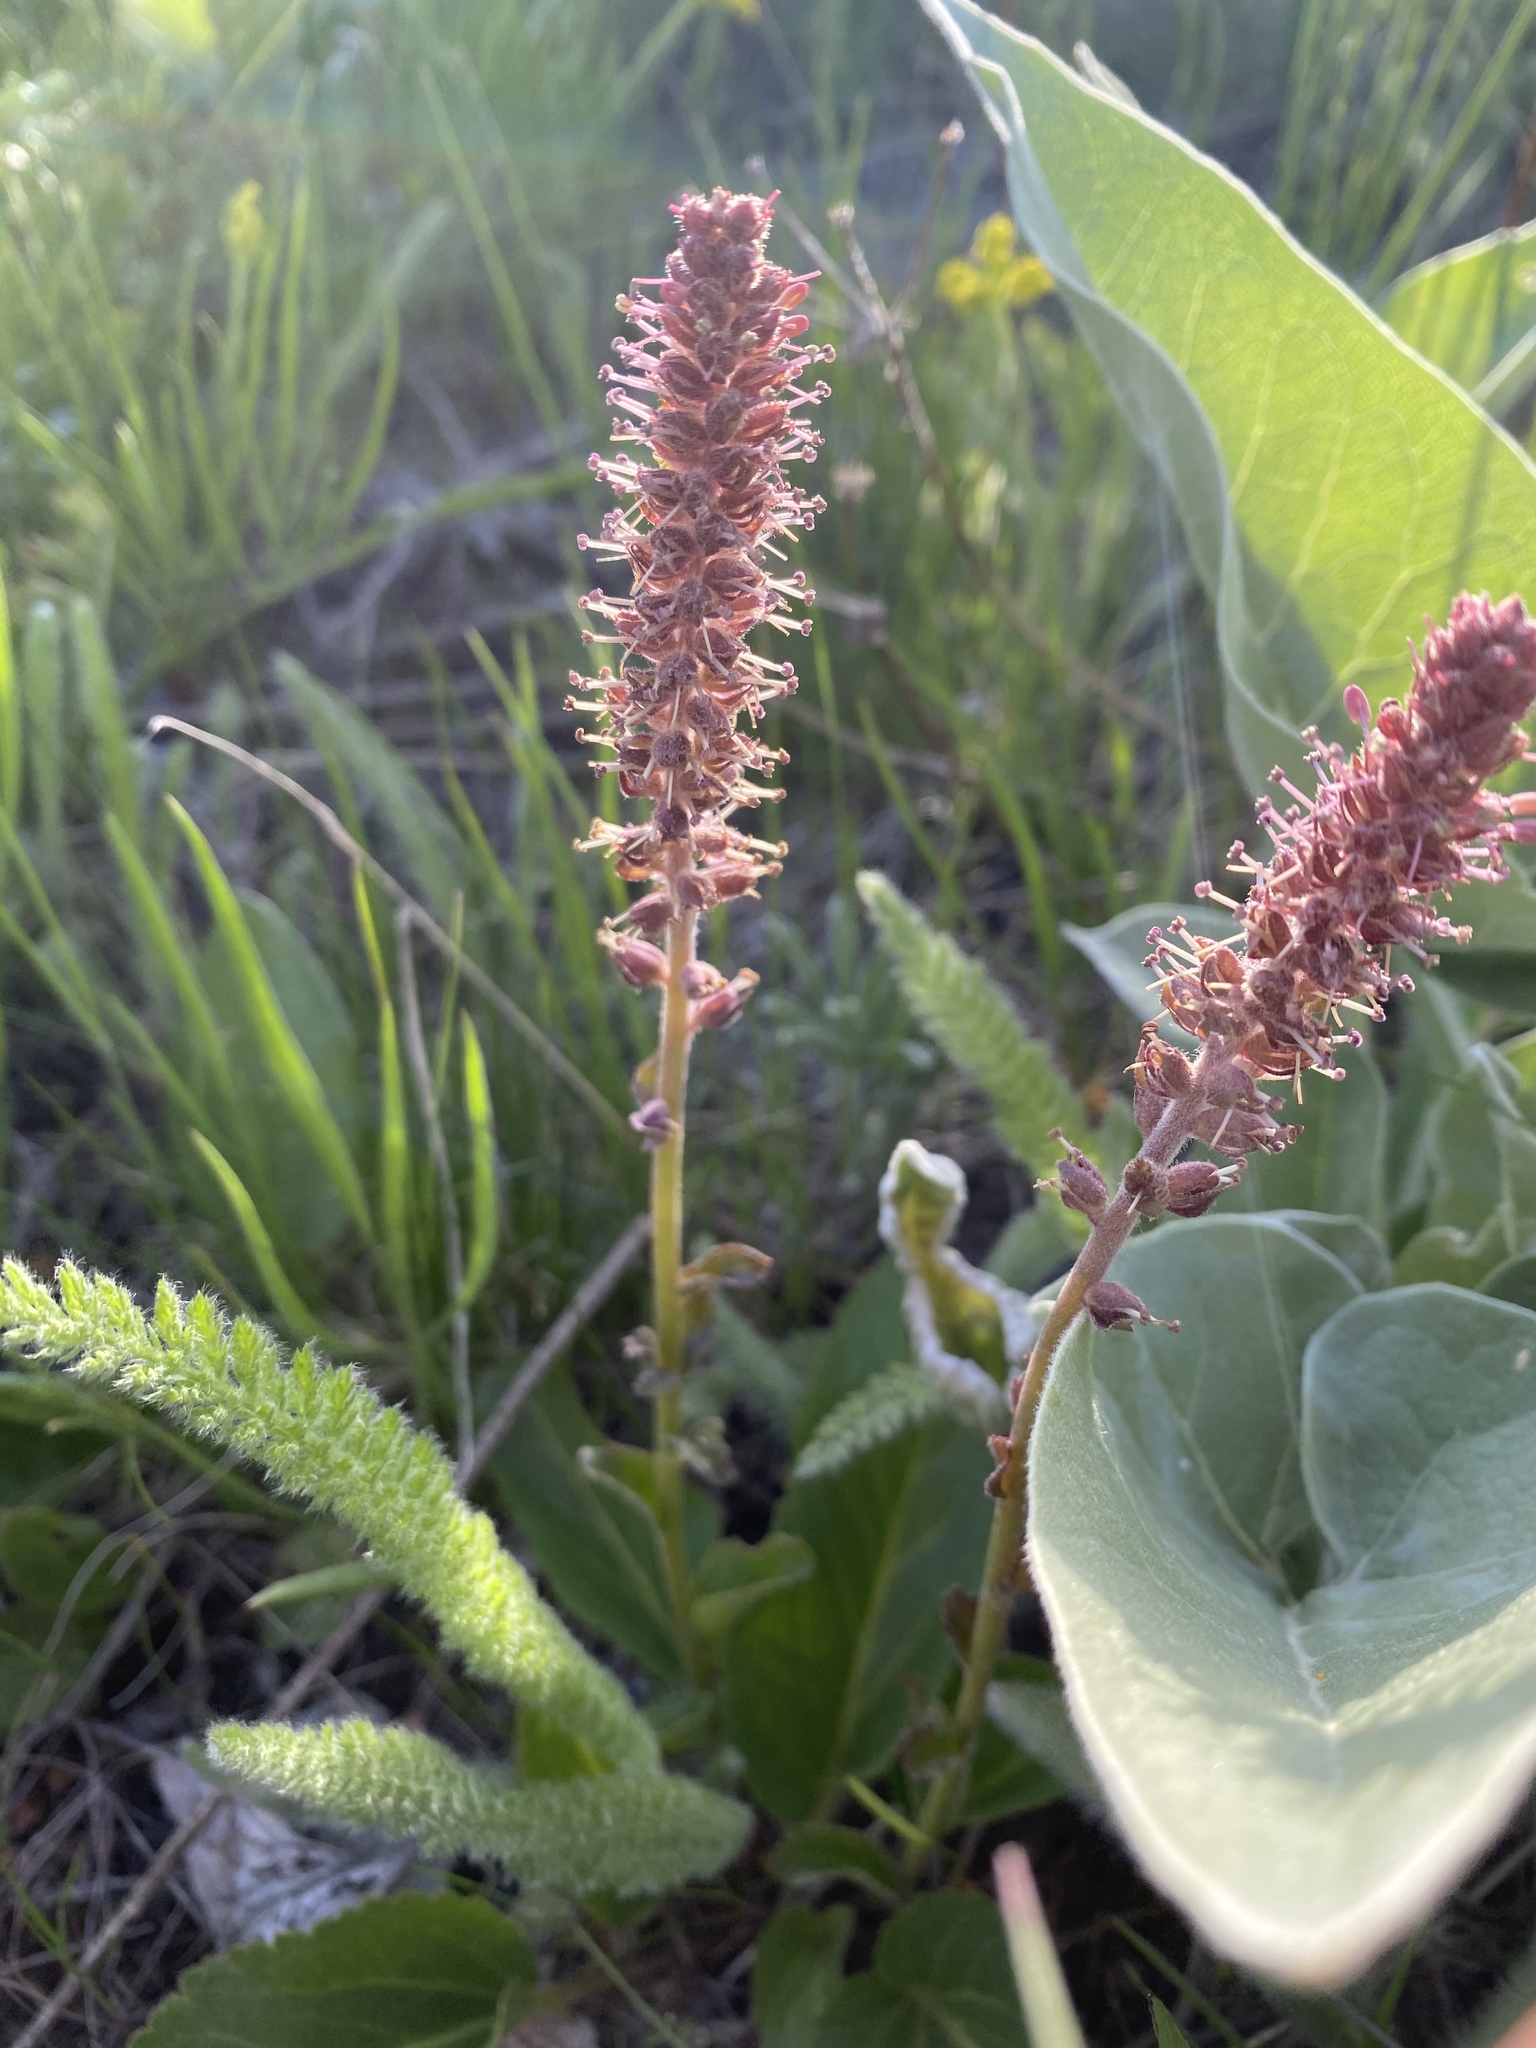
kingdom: Plantae
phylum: Tracheophyta
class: Magnoliopsida
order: Lamiales
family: Plantaginaceae
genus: Synthyris
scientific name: Synthyris rubra
